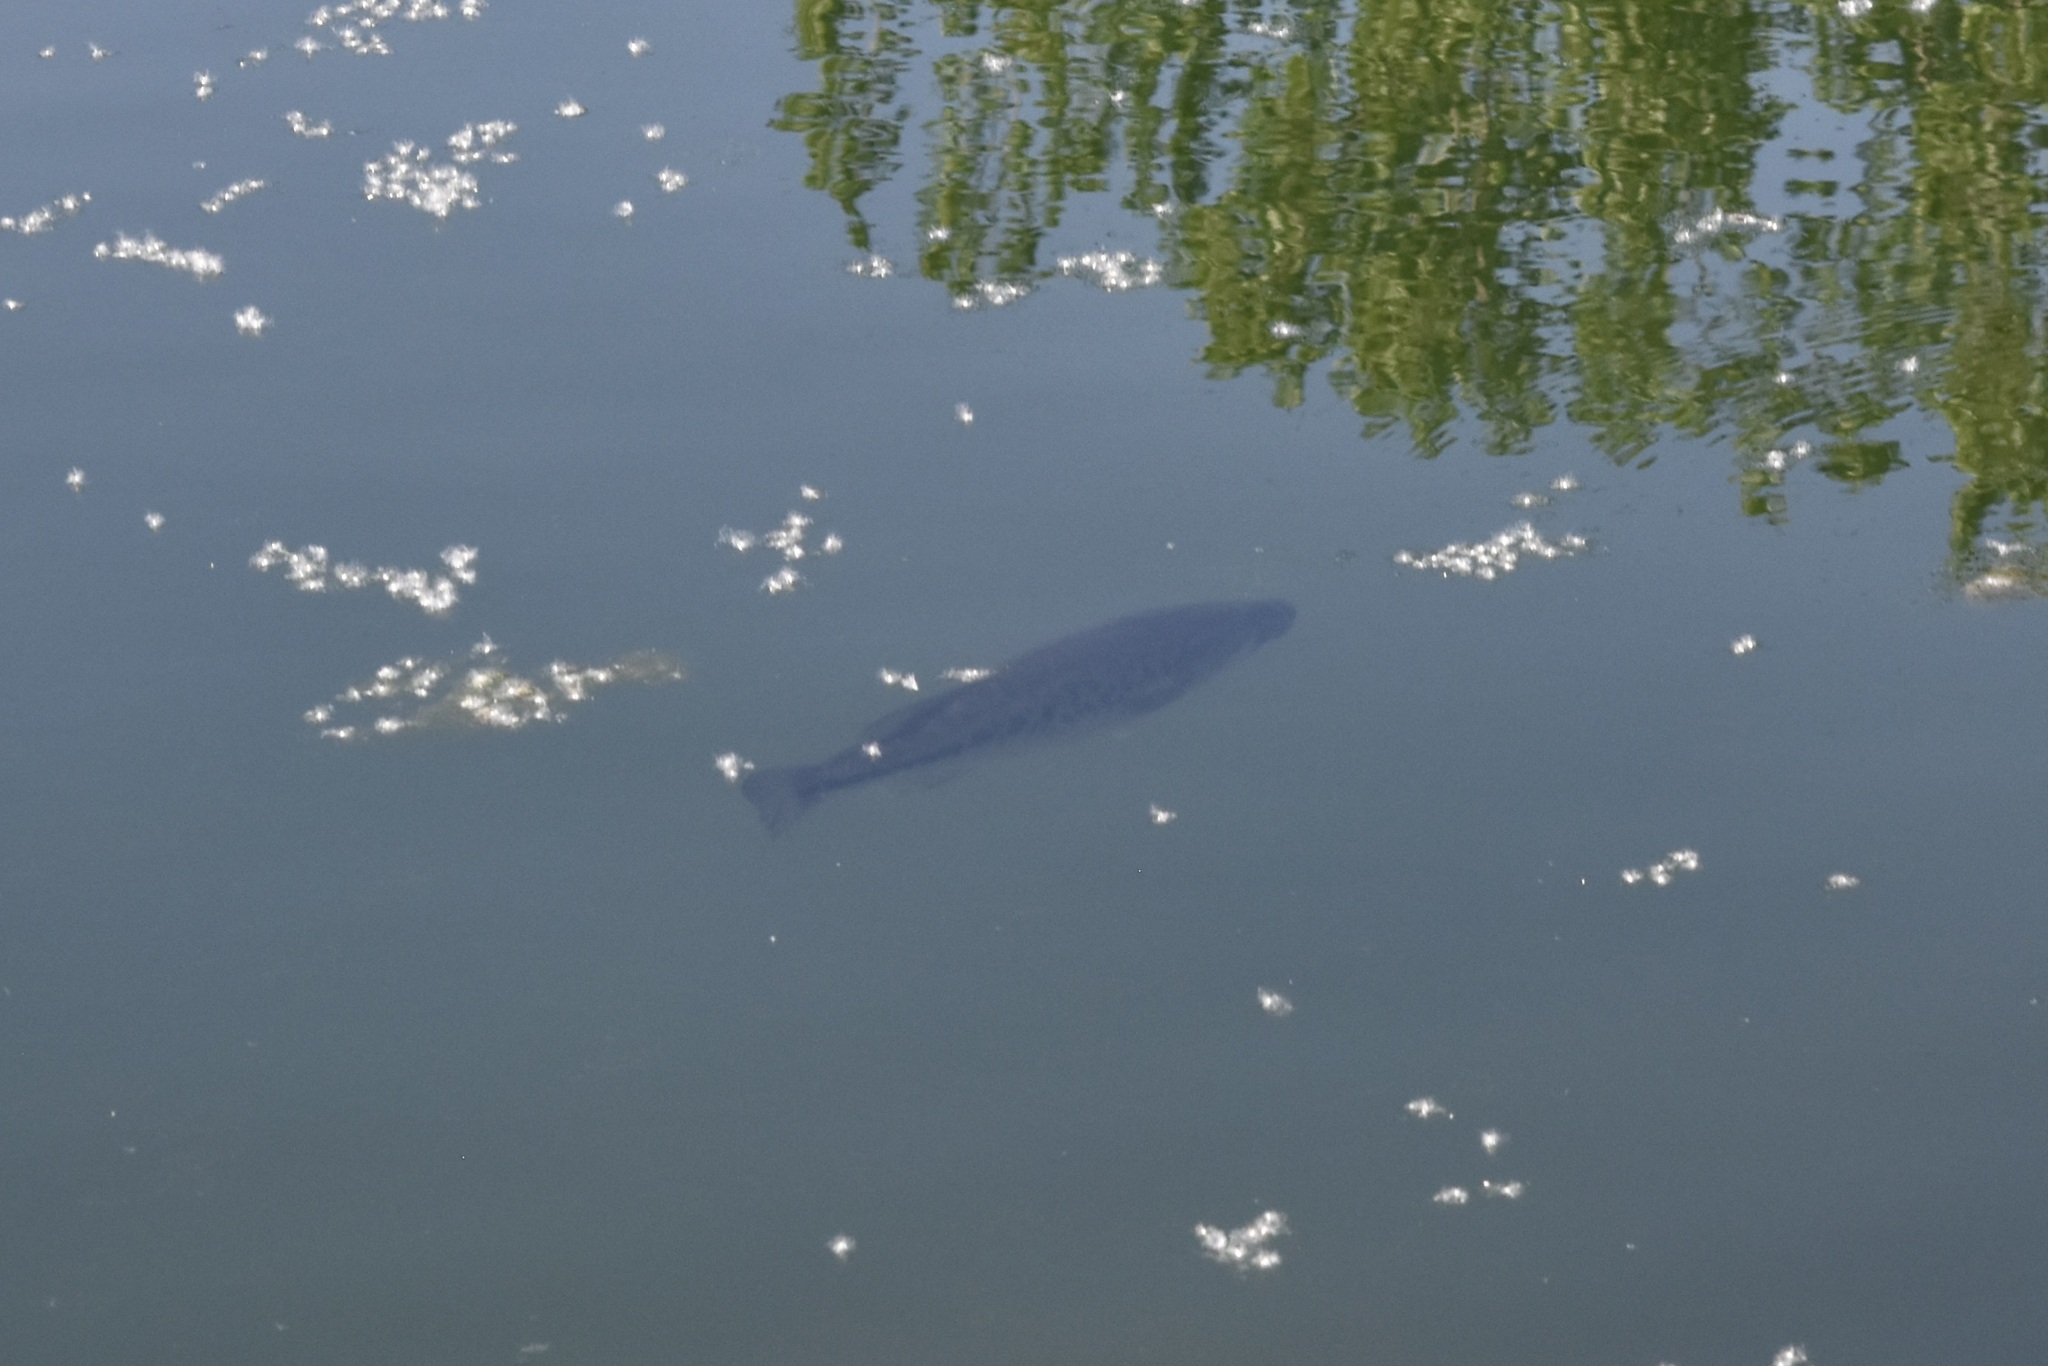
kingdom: Animalia
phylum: Chordata
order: Perciformes
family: Centrarchidae
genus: Micropterus
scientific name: Micropterus
